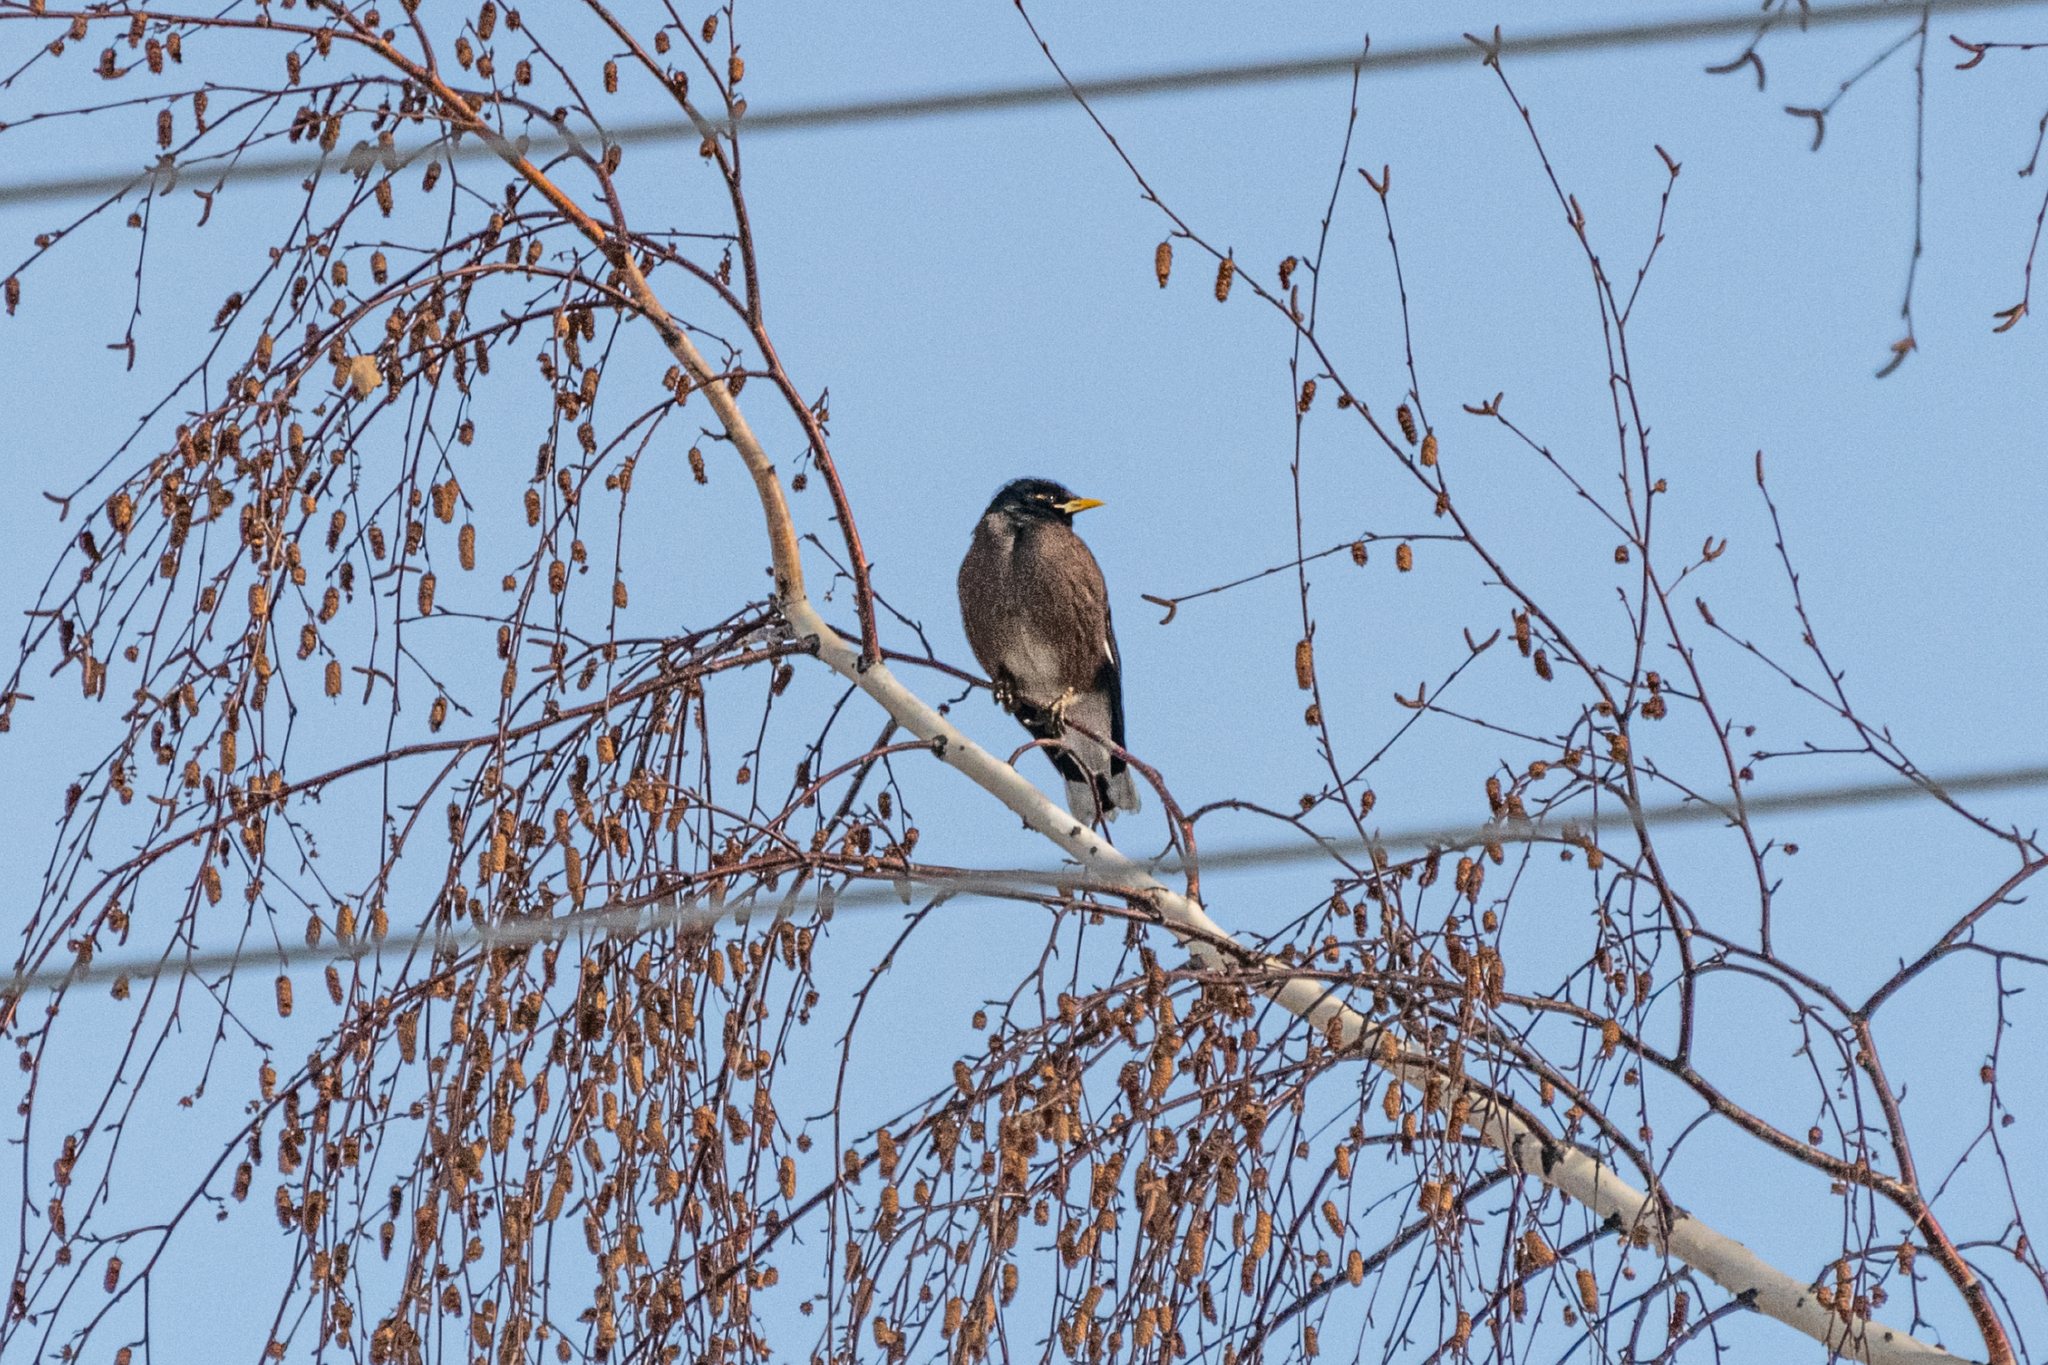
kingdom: Animalia
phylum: Chordata
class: Aves
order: Passeriformes
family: Sturnidae
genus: Acridotheres
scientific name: Acridotheres tristis
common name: Common myna
